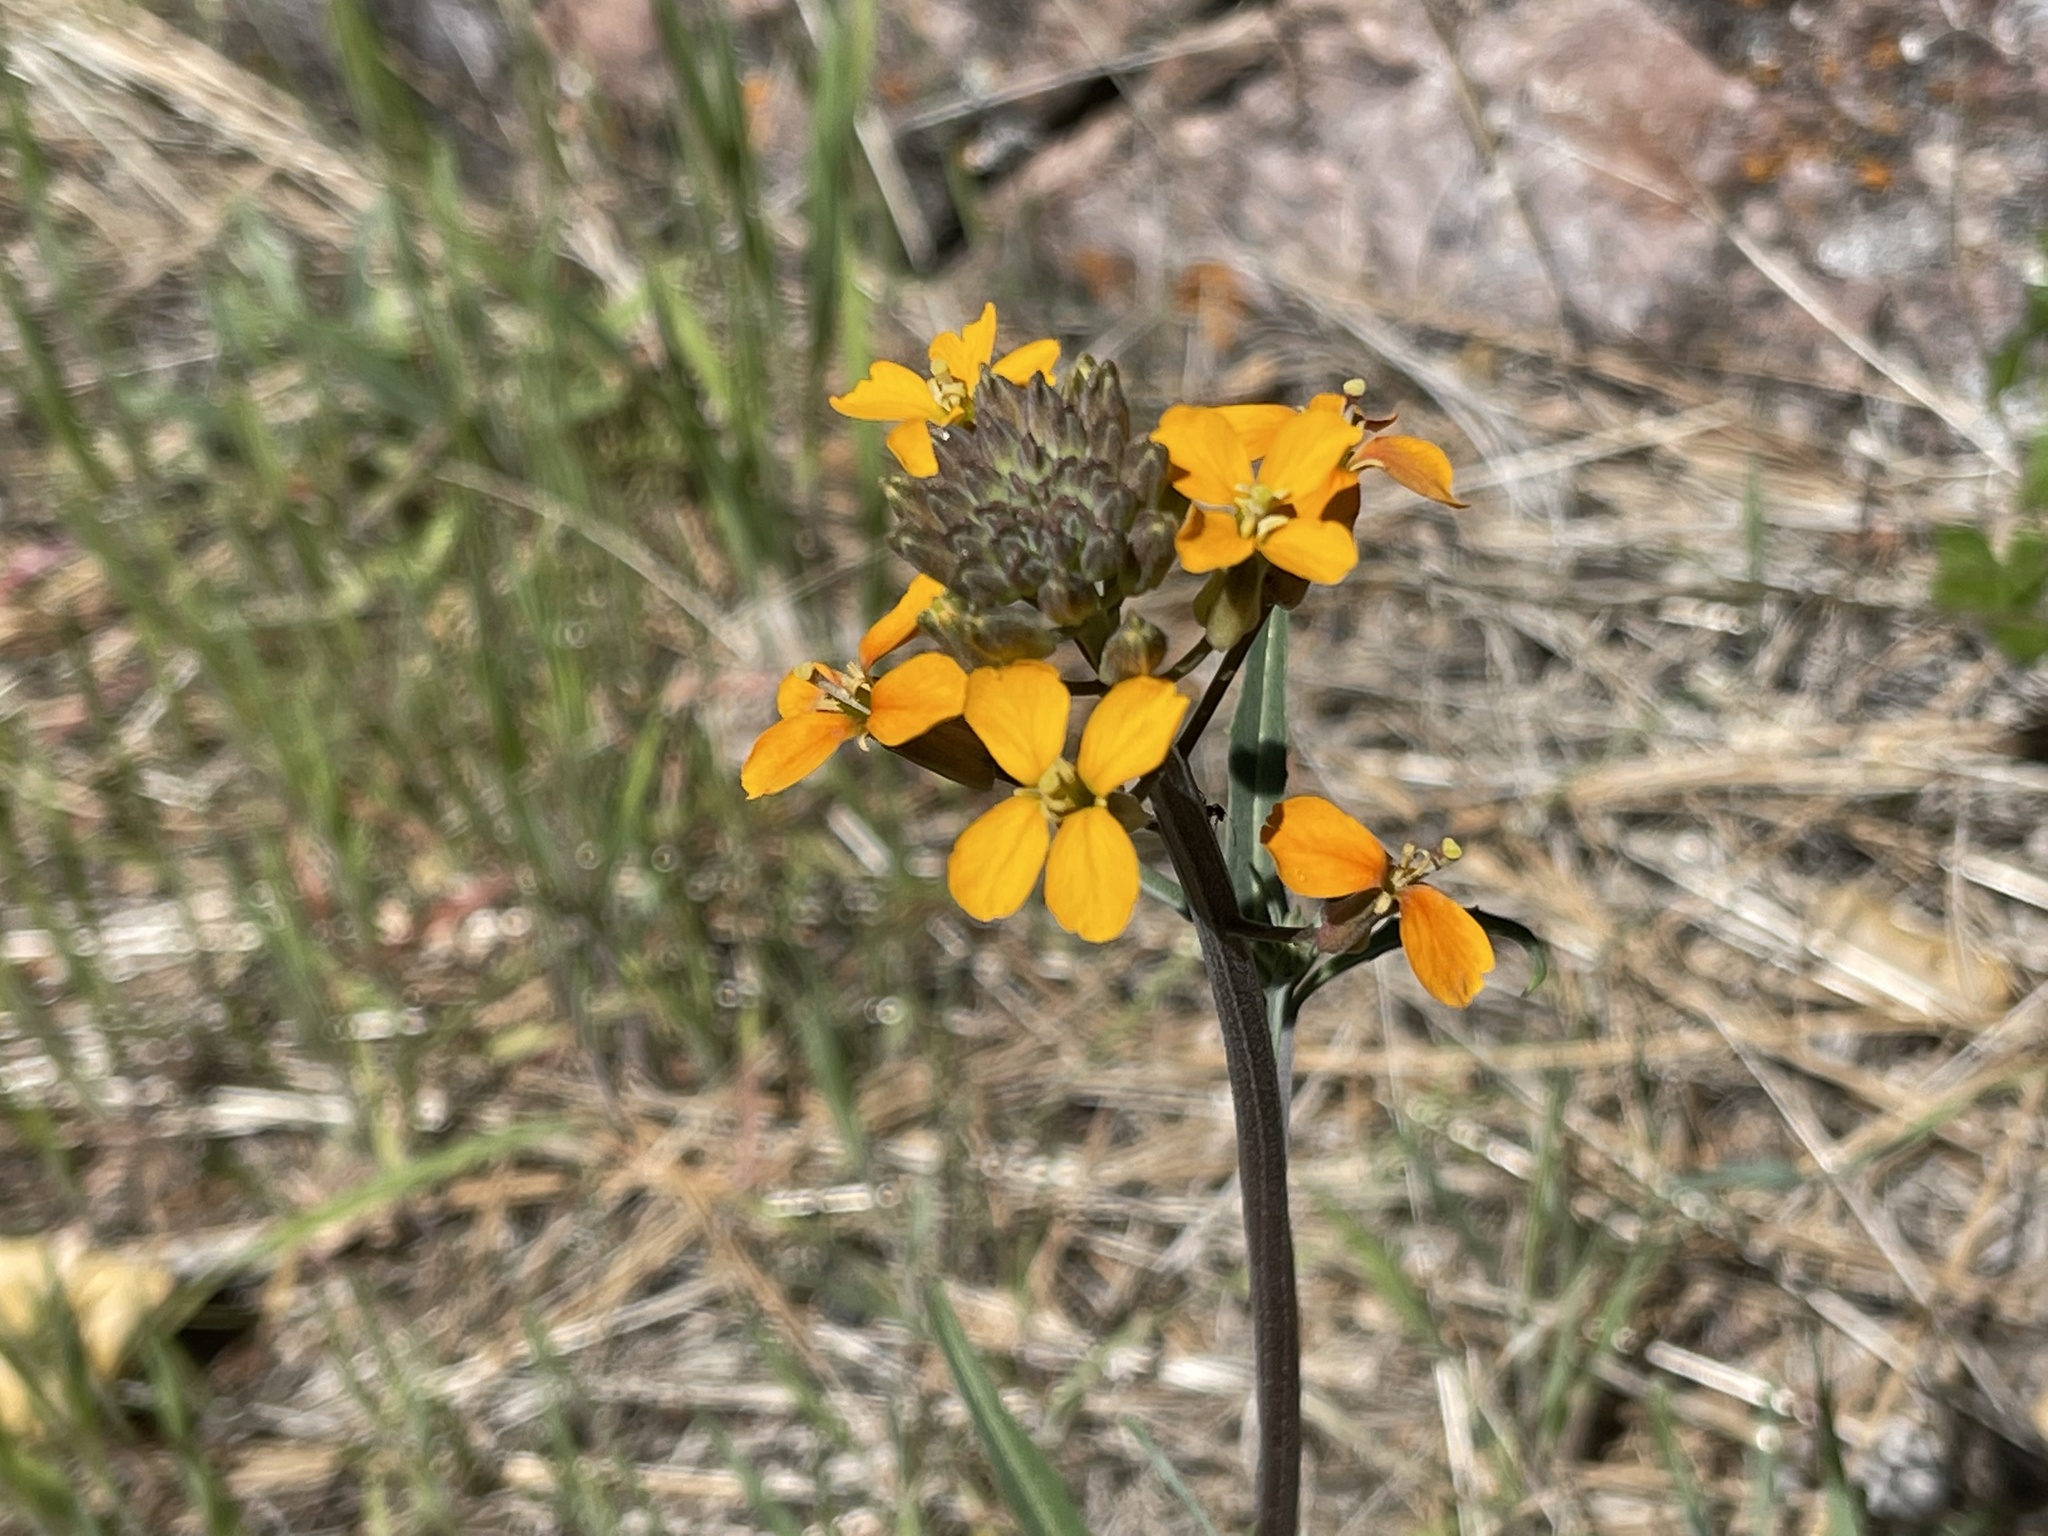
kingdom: Plantae
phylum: Tracheophyta
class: Magnoliopsida
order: Brassicales
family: Brassicaceae
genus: Erysimum
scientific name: Erysimum capitatum
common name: Western wallflower
